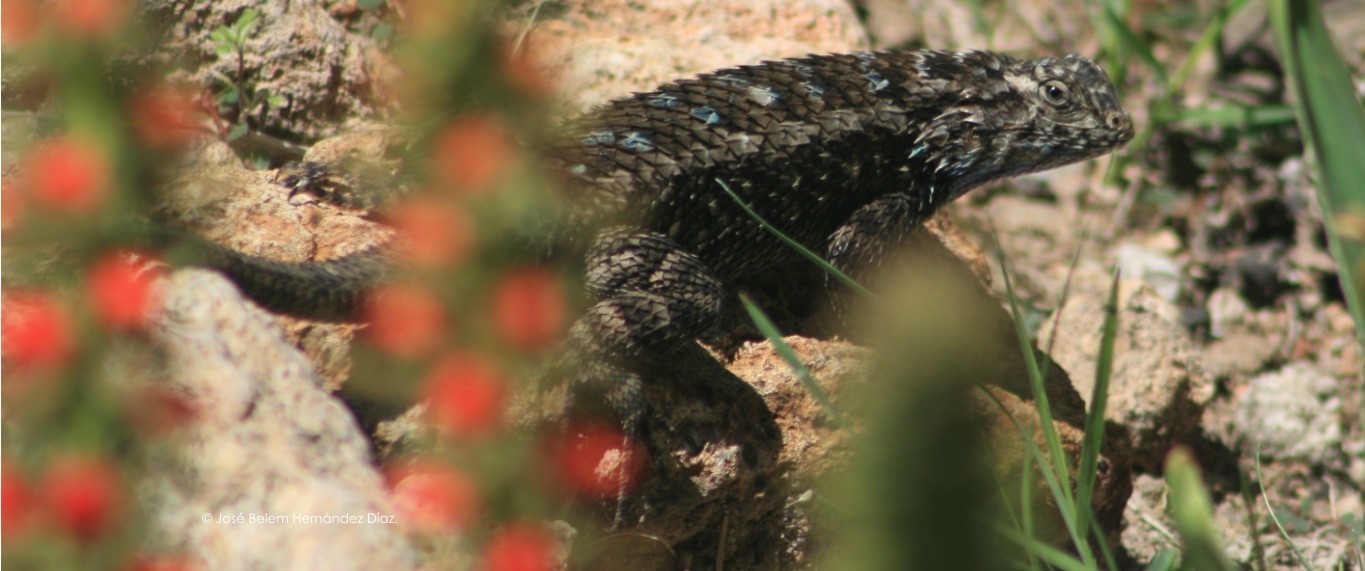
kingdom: Animalia
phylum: Chordata
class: Squamata
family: Phrynosomatidae
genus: Sceloporus
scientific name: Sceloporus spinosus
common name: Blue-spotted spiny lizard [caeruleopunctatus]
